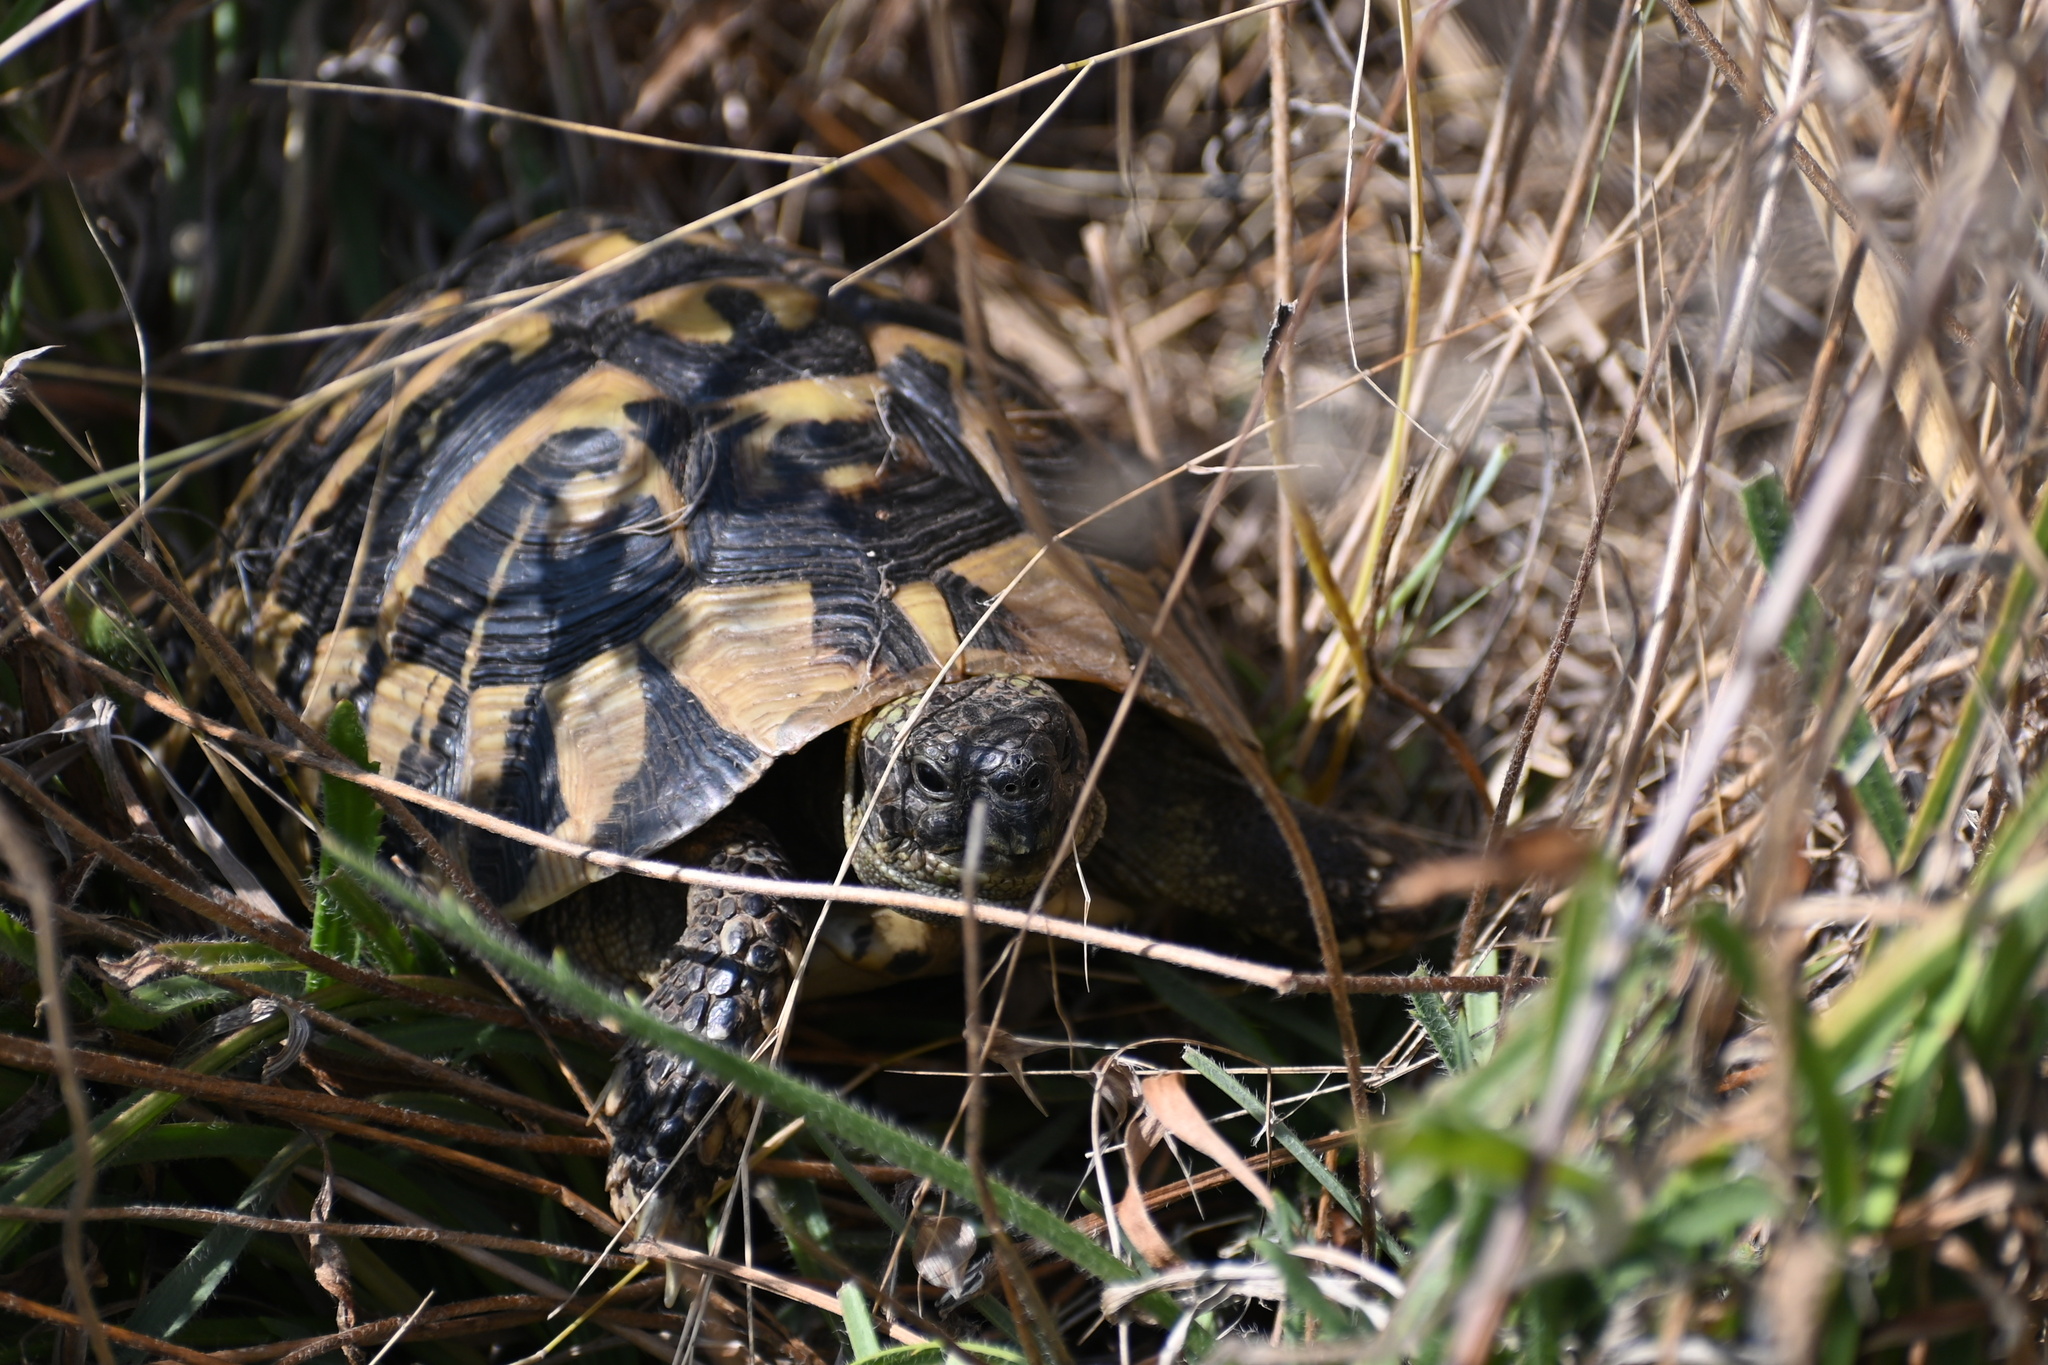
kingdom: Animalia
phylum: Chordata
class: Testudines
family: Testudinidae
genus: Testudo
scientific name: Testudo hermanni
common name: Hermann's tortoise
